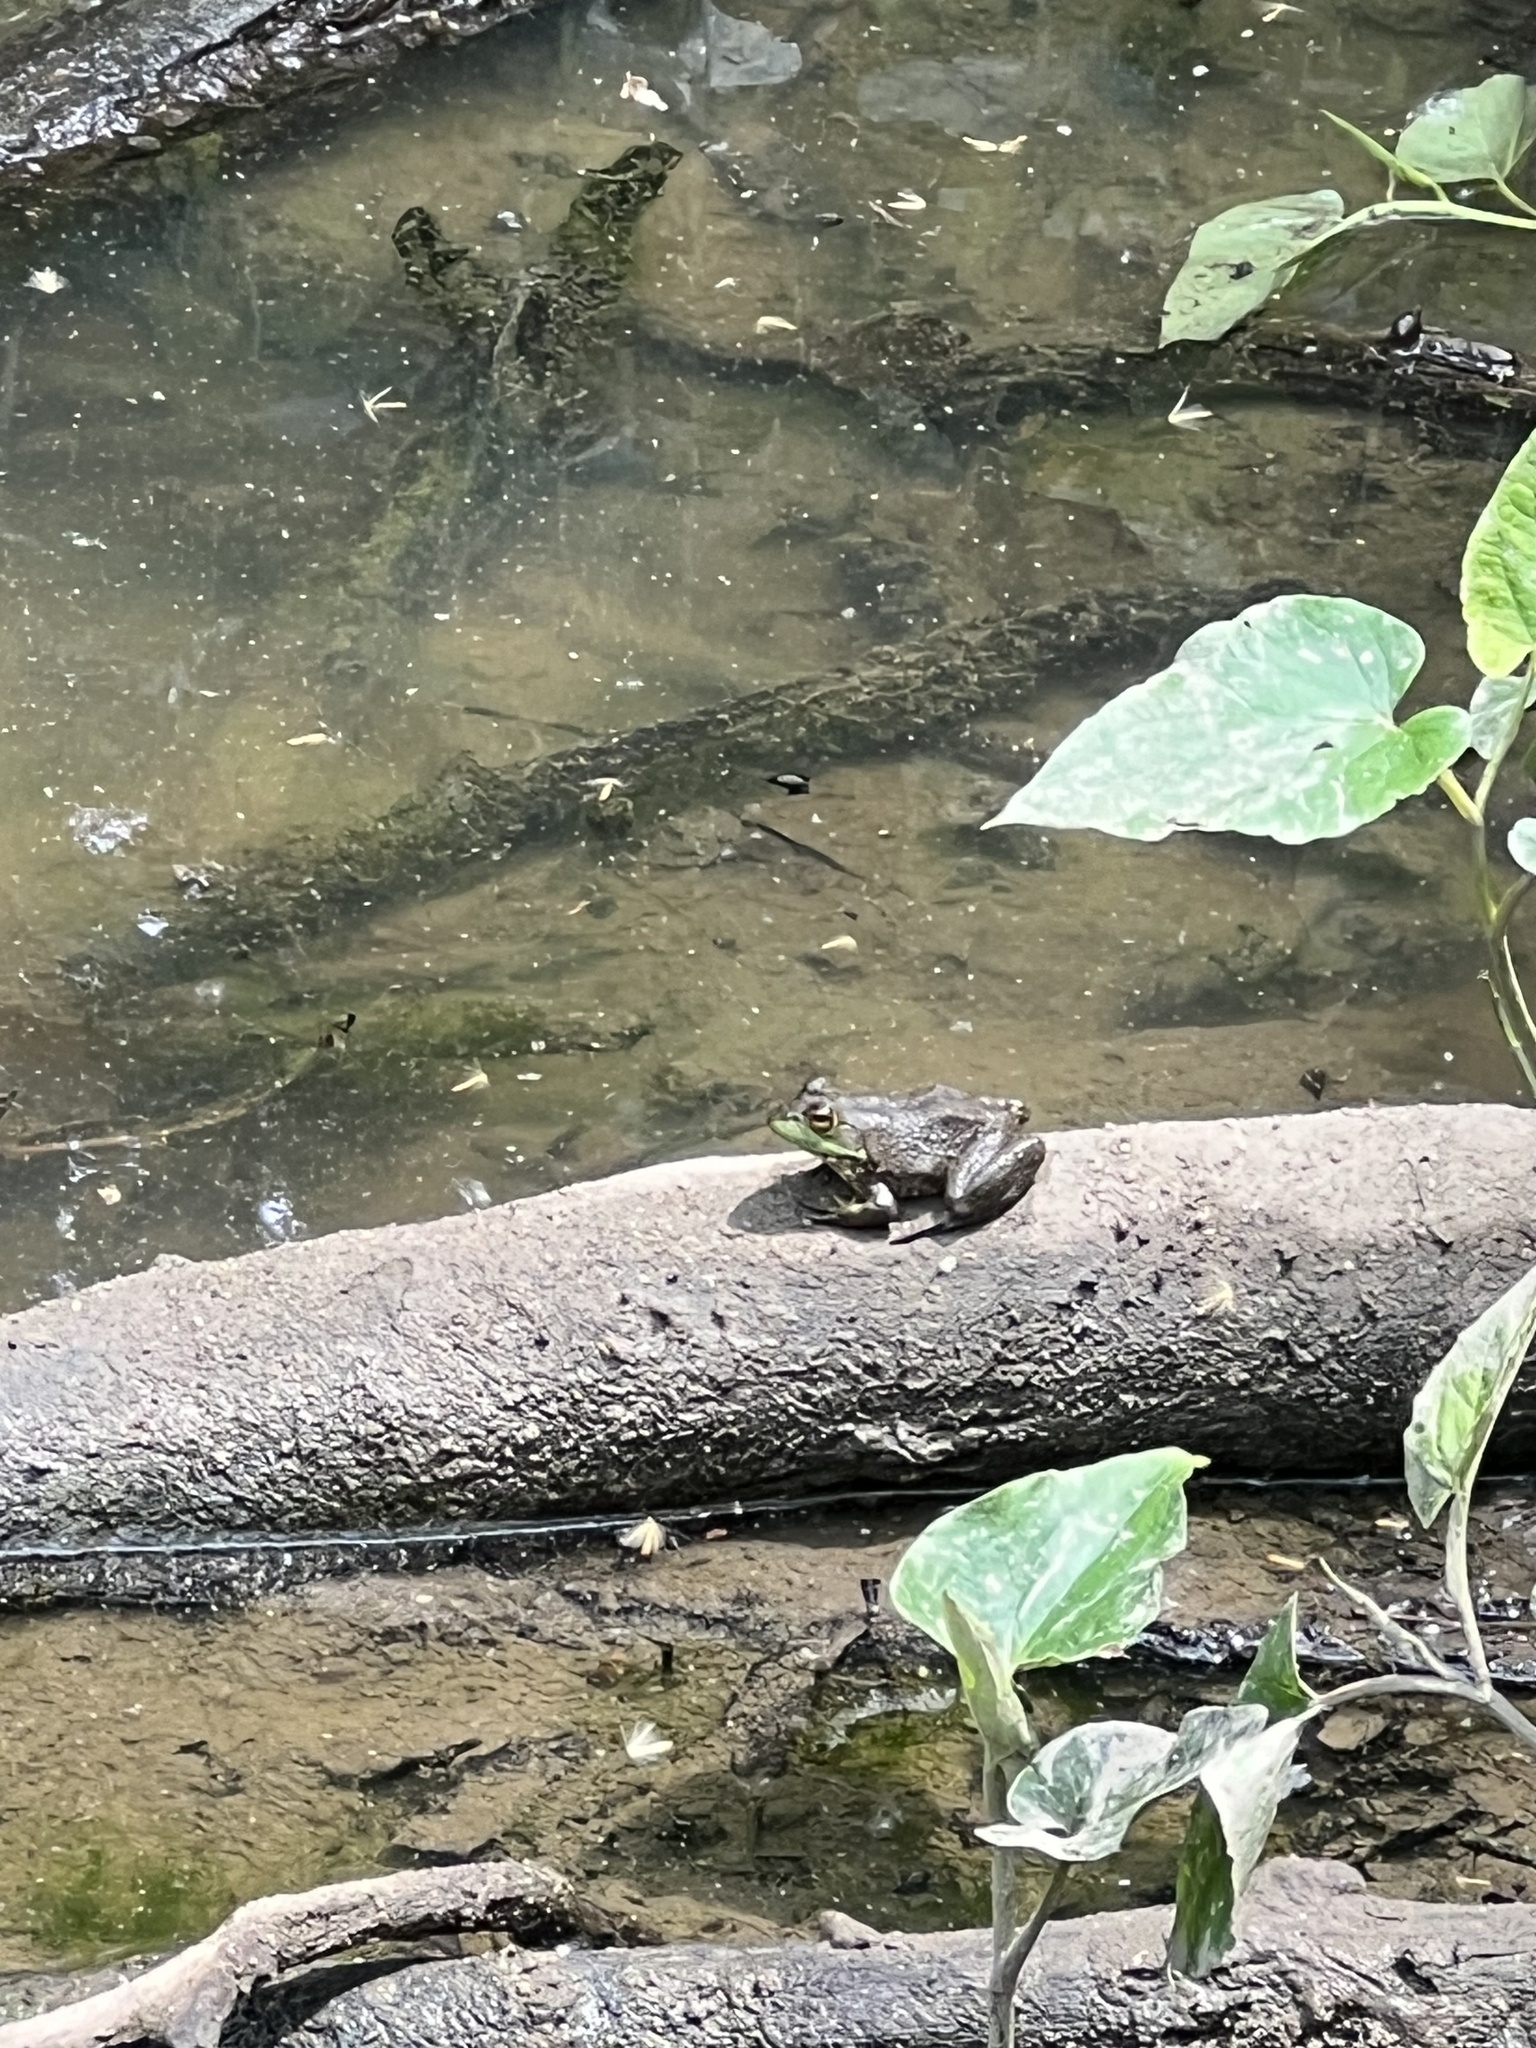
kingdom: Animalia
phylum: Chordata
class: Amphibia
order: Anura
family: Ranidae
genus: Lithobates
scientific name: Lithobates catesbeianus
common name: American bullfrog
